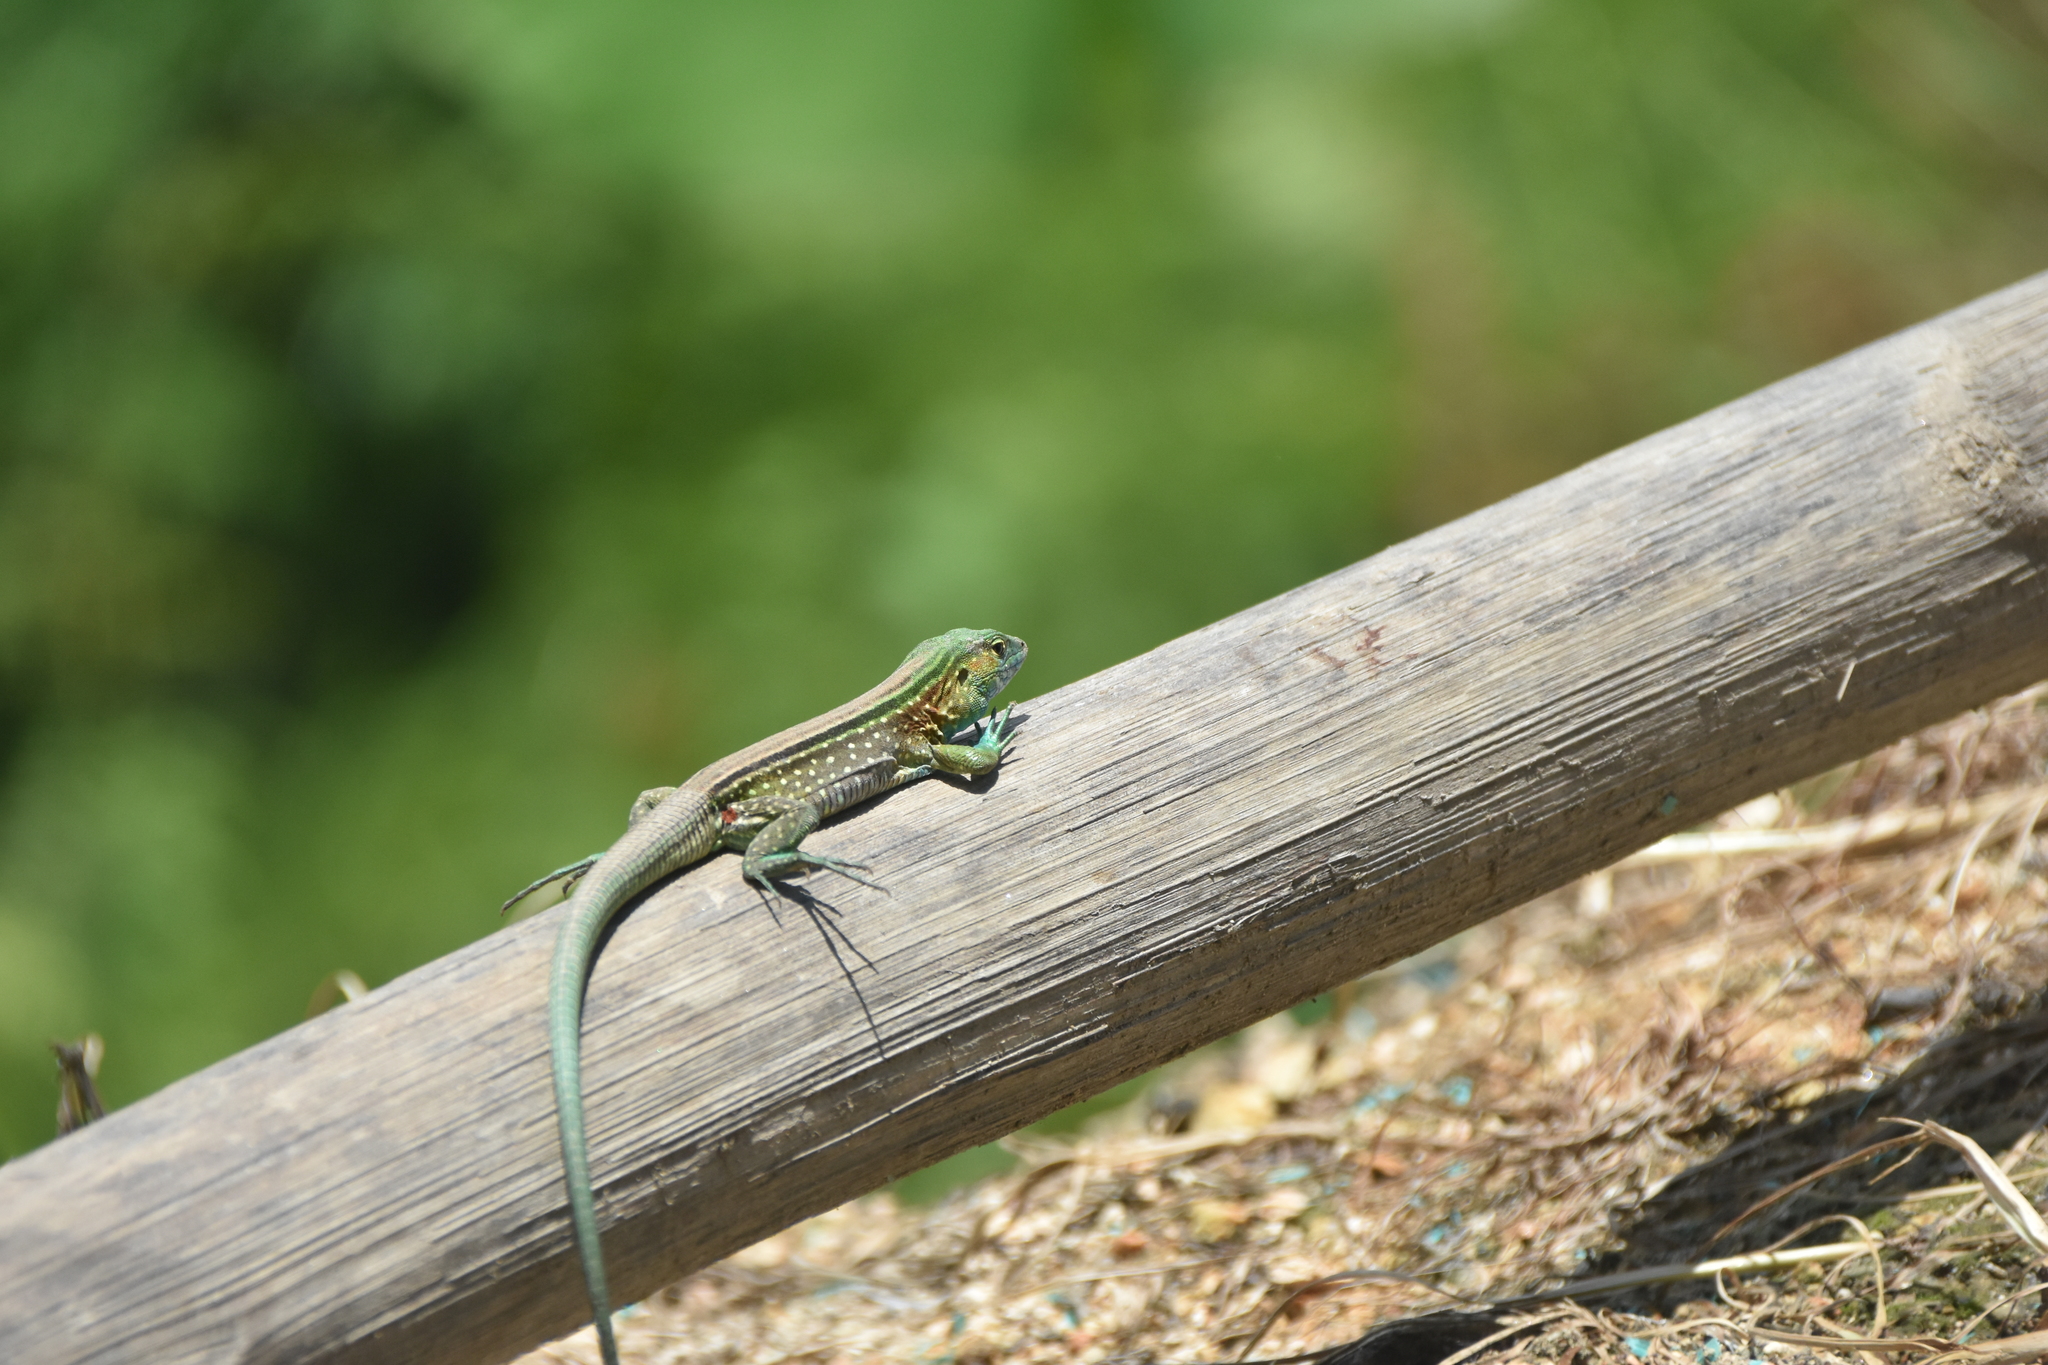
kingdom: Animalia
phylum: Chordata
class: Squamata
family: Teiidae
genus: Cnemidophorus
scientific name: Cnemidophorus gaigei
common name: Gaige’s rainbow lizard
